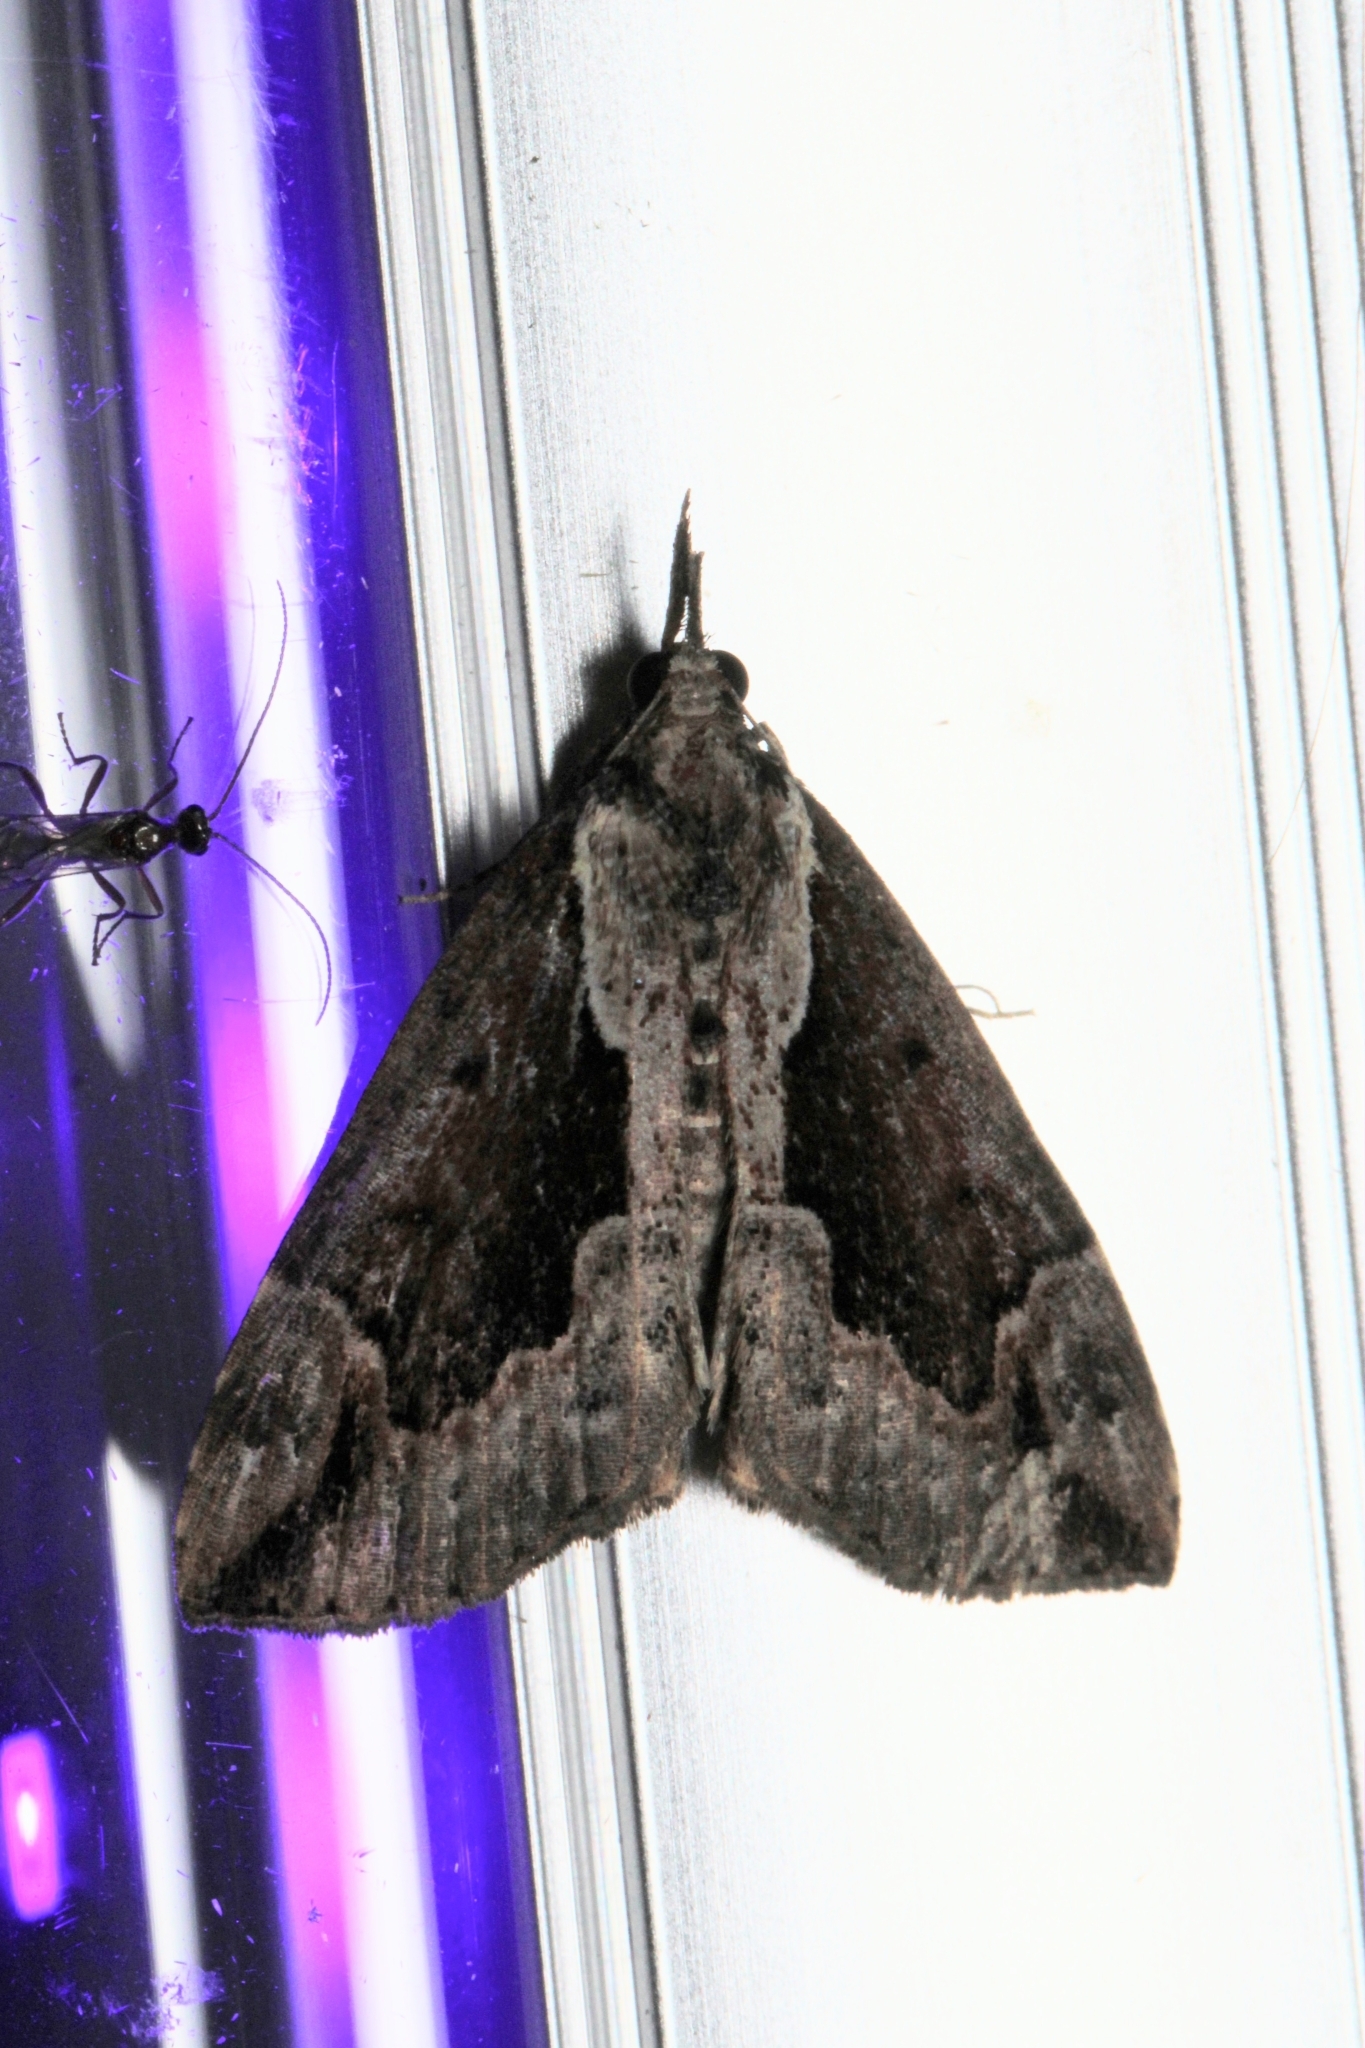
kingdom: Animalia
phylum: Arthropoda
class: Insecta
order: Lepidoptera
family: Erebidae
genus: Hypena
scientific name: Hypena baltimoralis
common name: Baltimore snout
